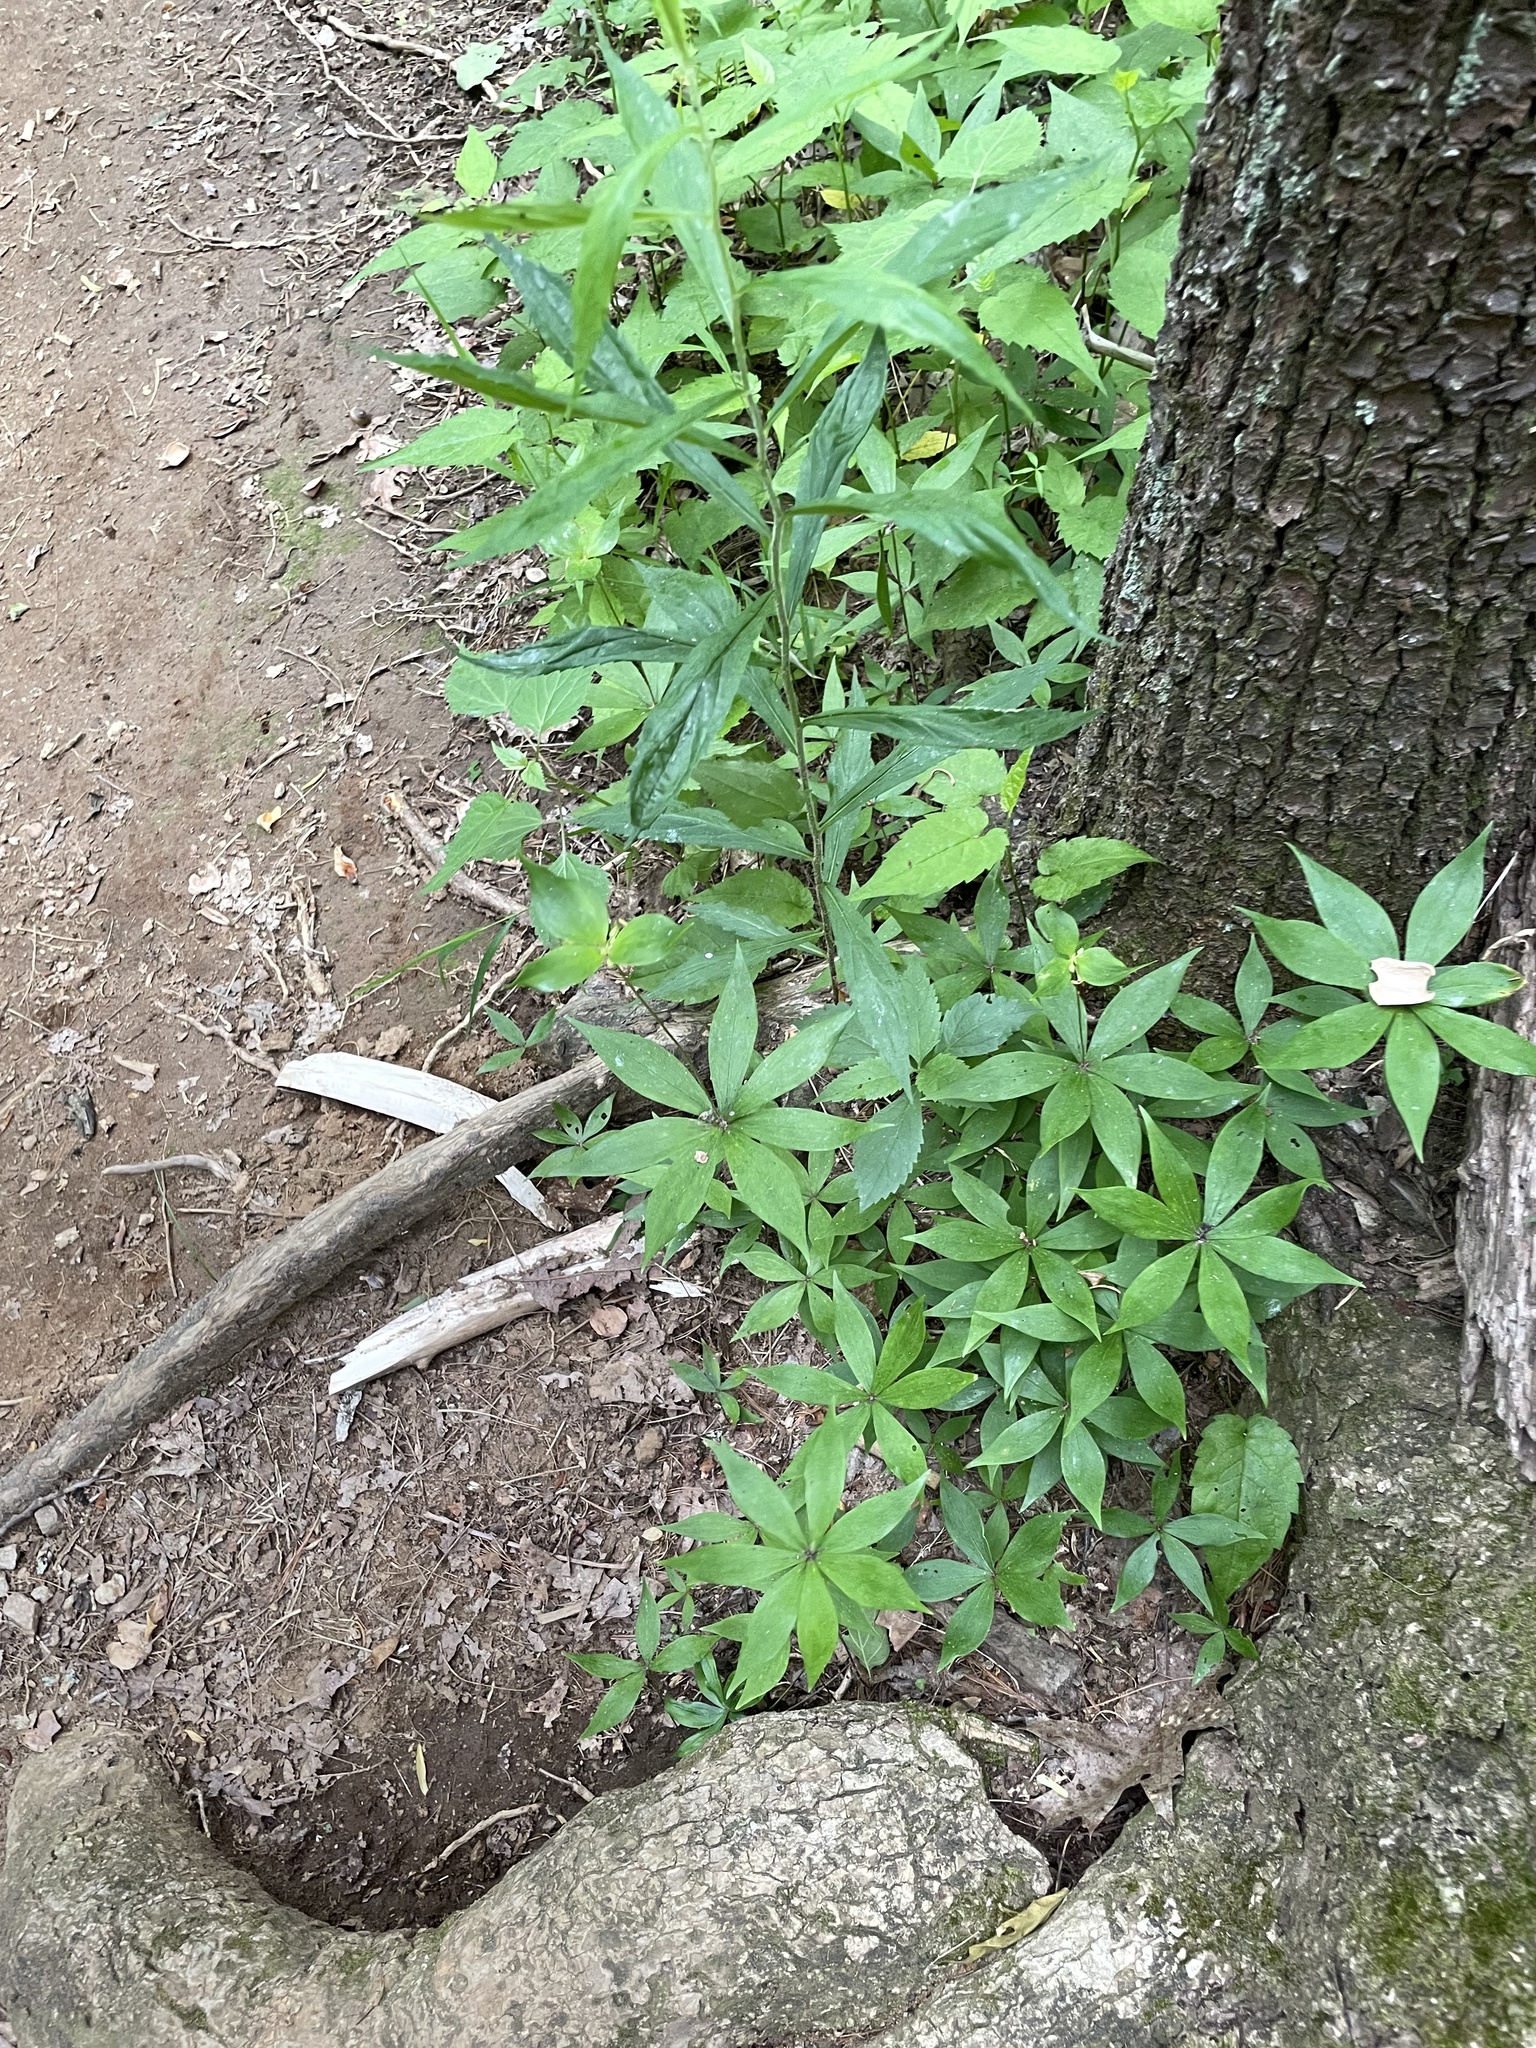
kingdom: Plantae
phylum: Tracheophyta
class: Liliopsida
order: Liliales
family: Liliaceae
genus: Medeola
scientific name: Medeola virginiana
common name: Indian cucumber-root
